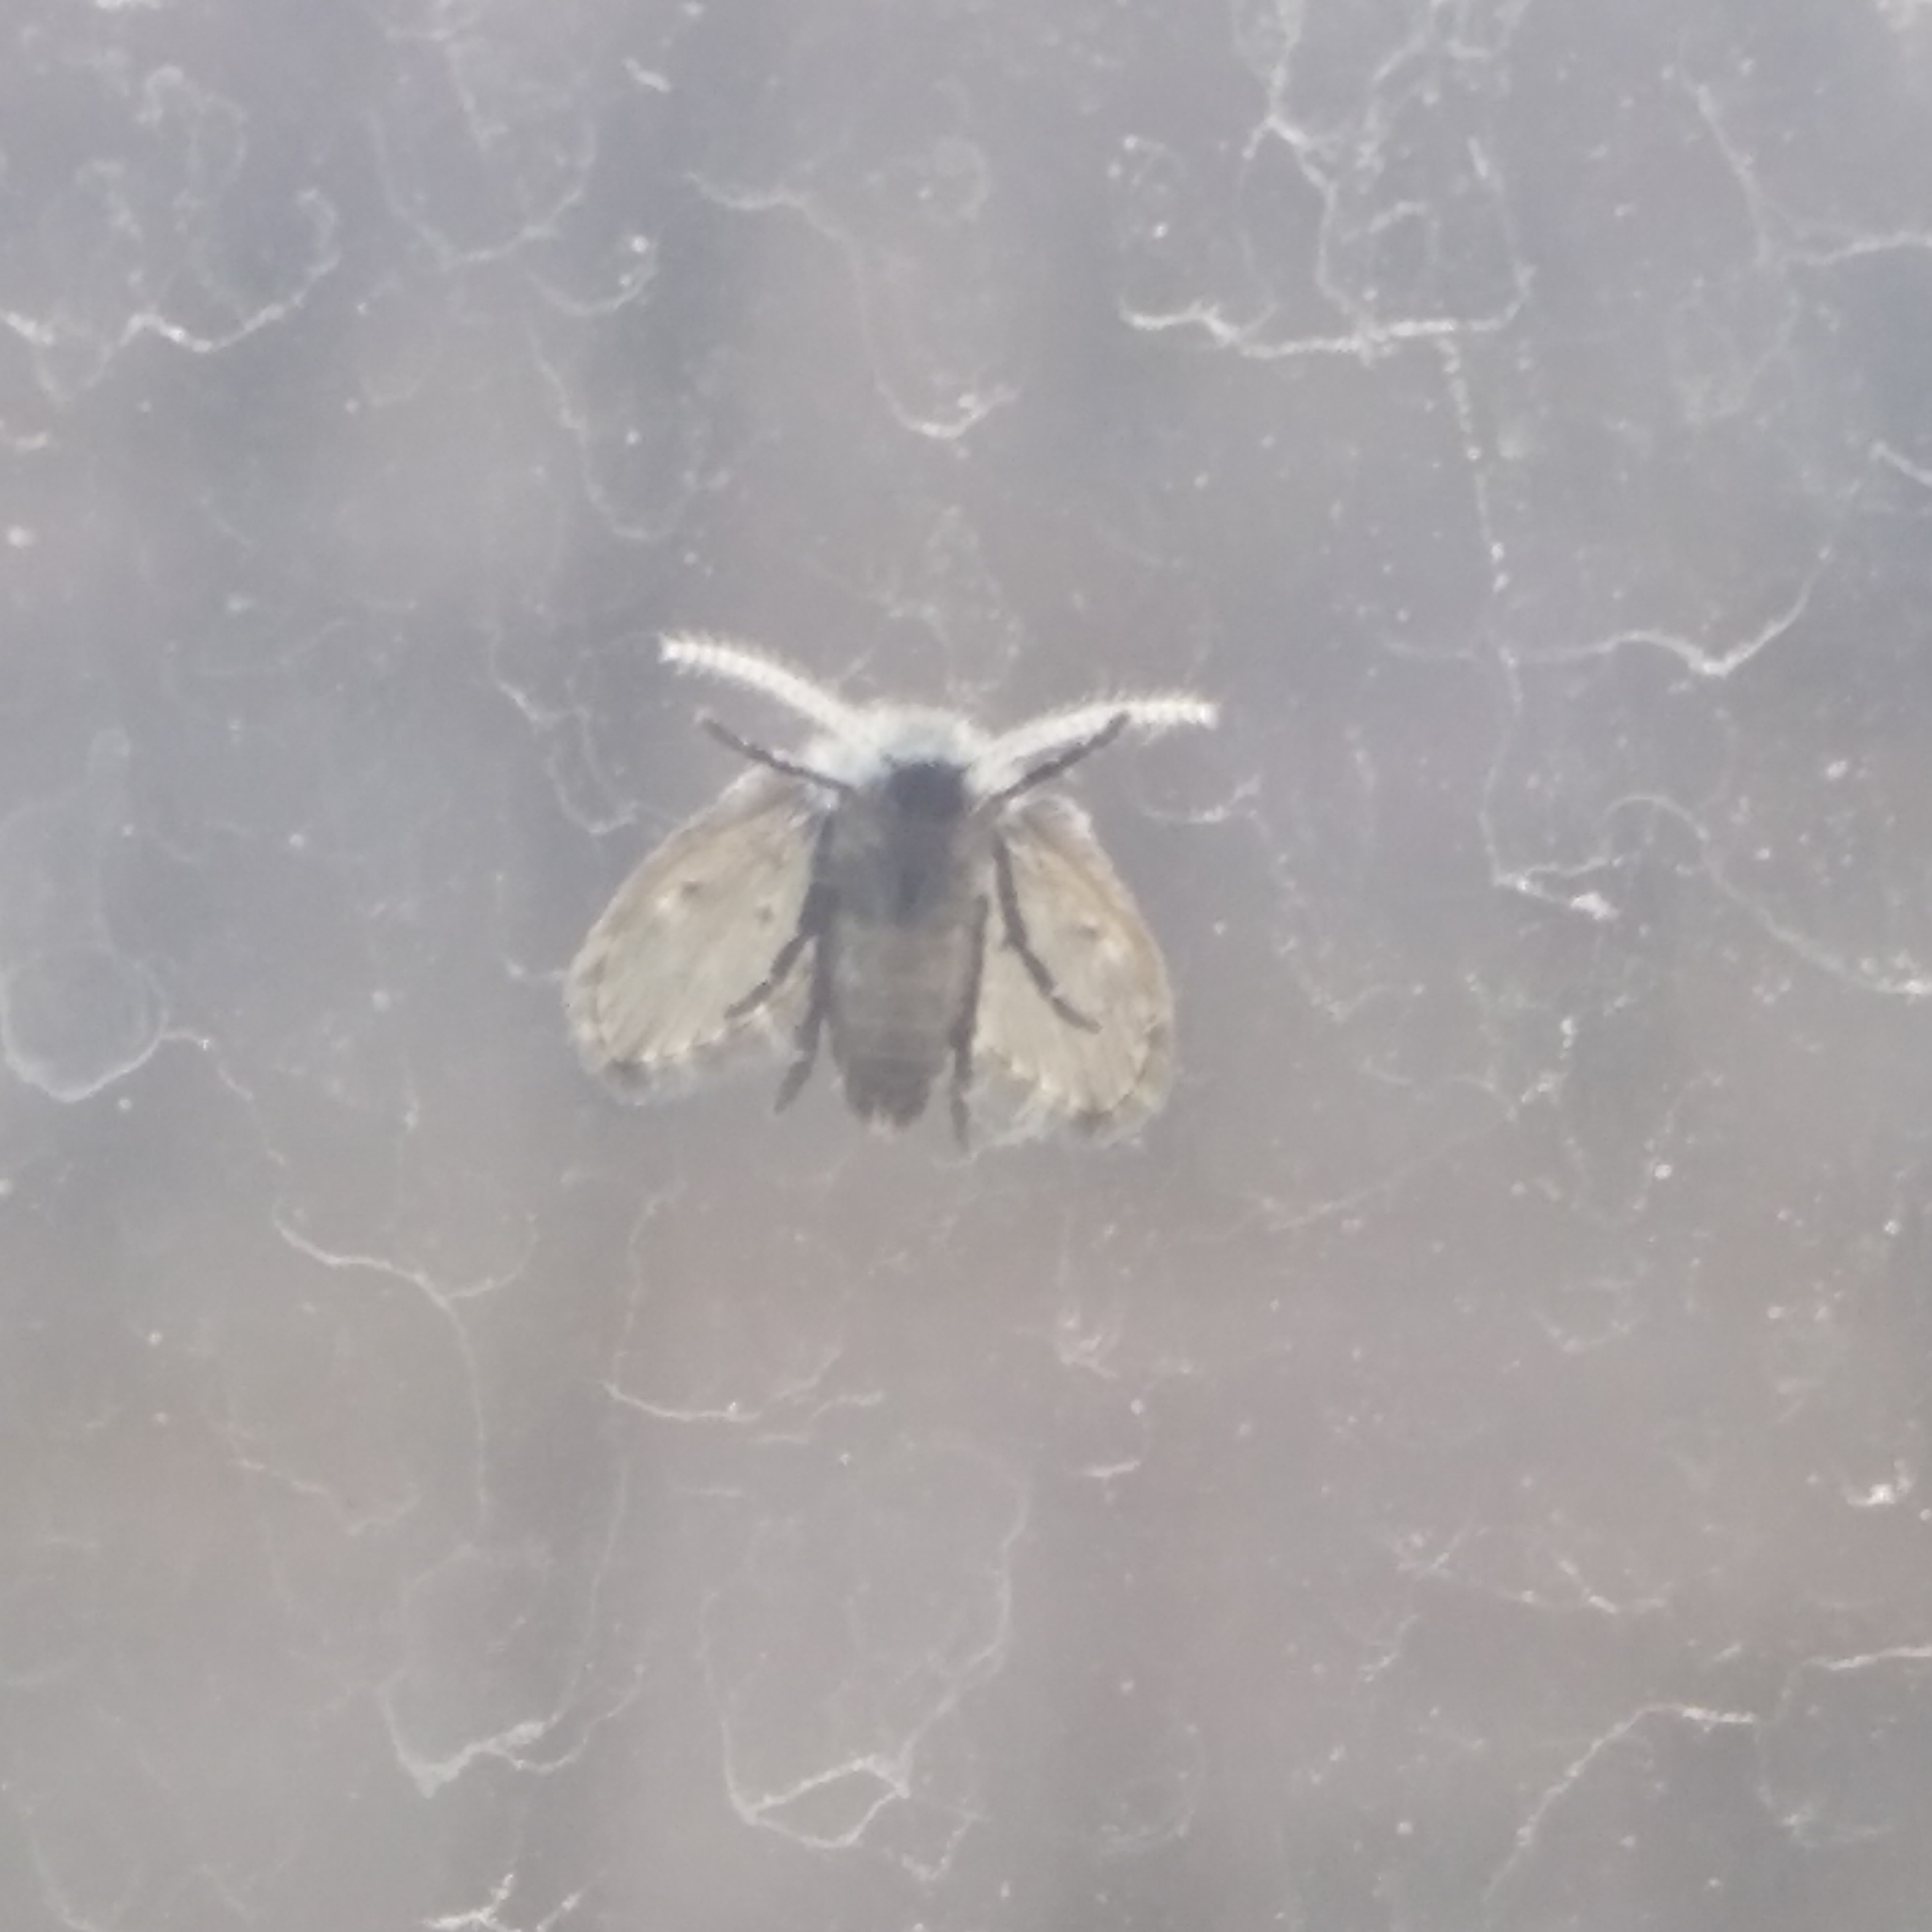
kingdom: Animalia
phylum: Arthropoda
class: Insecta
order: Diptera
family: Psychodidae
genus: Clogmia
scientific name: Clogmia albipunctatus
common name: White-spotted moth fly
